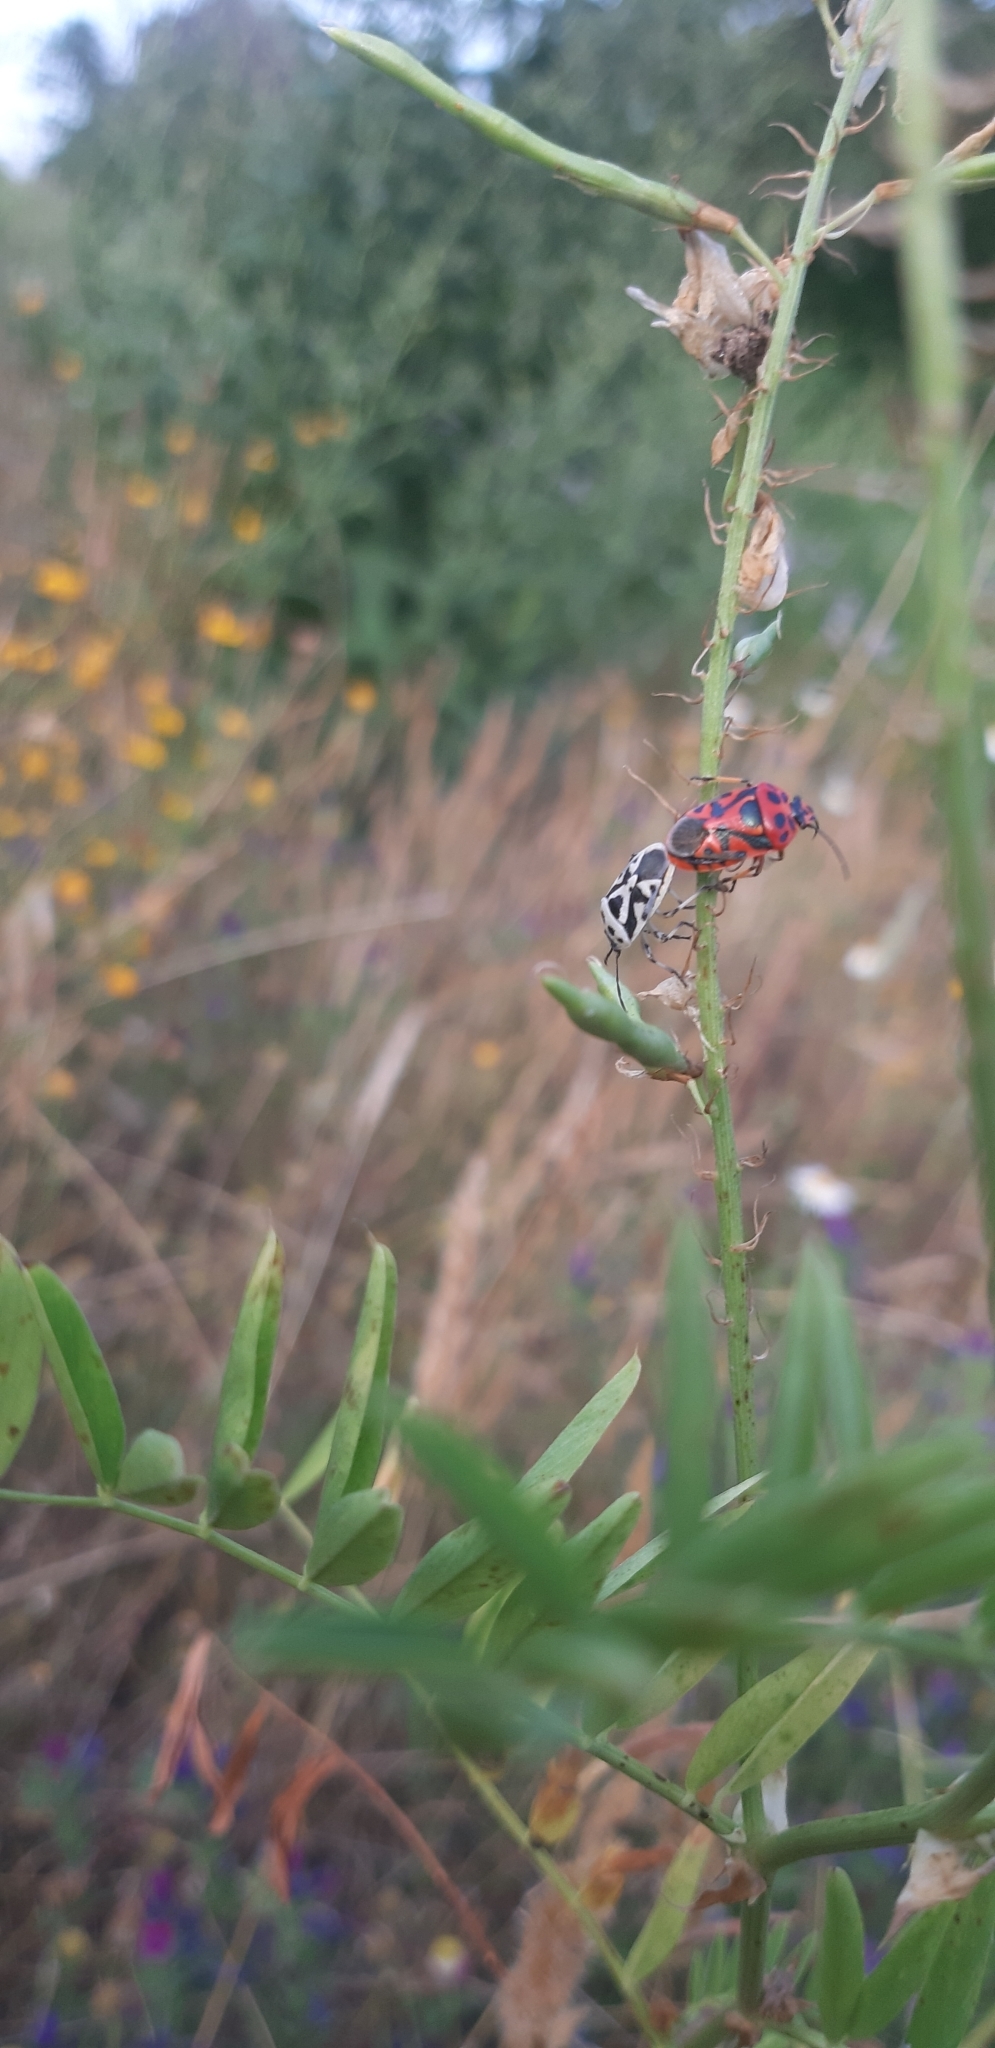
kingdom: Animalia
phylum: Arthropoda
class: Insecta
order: Hemiptera
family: Pentatomidae
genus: Eurydema
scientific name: Eurydema ornata
